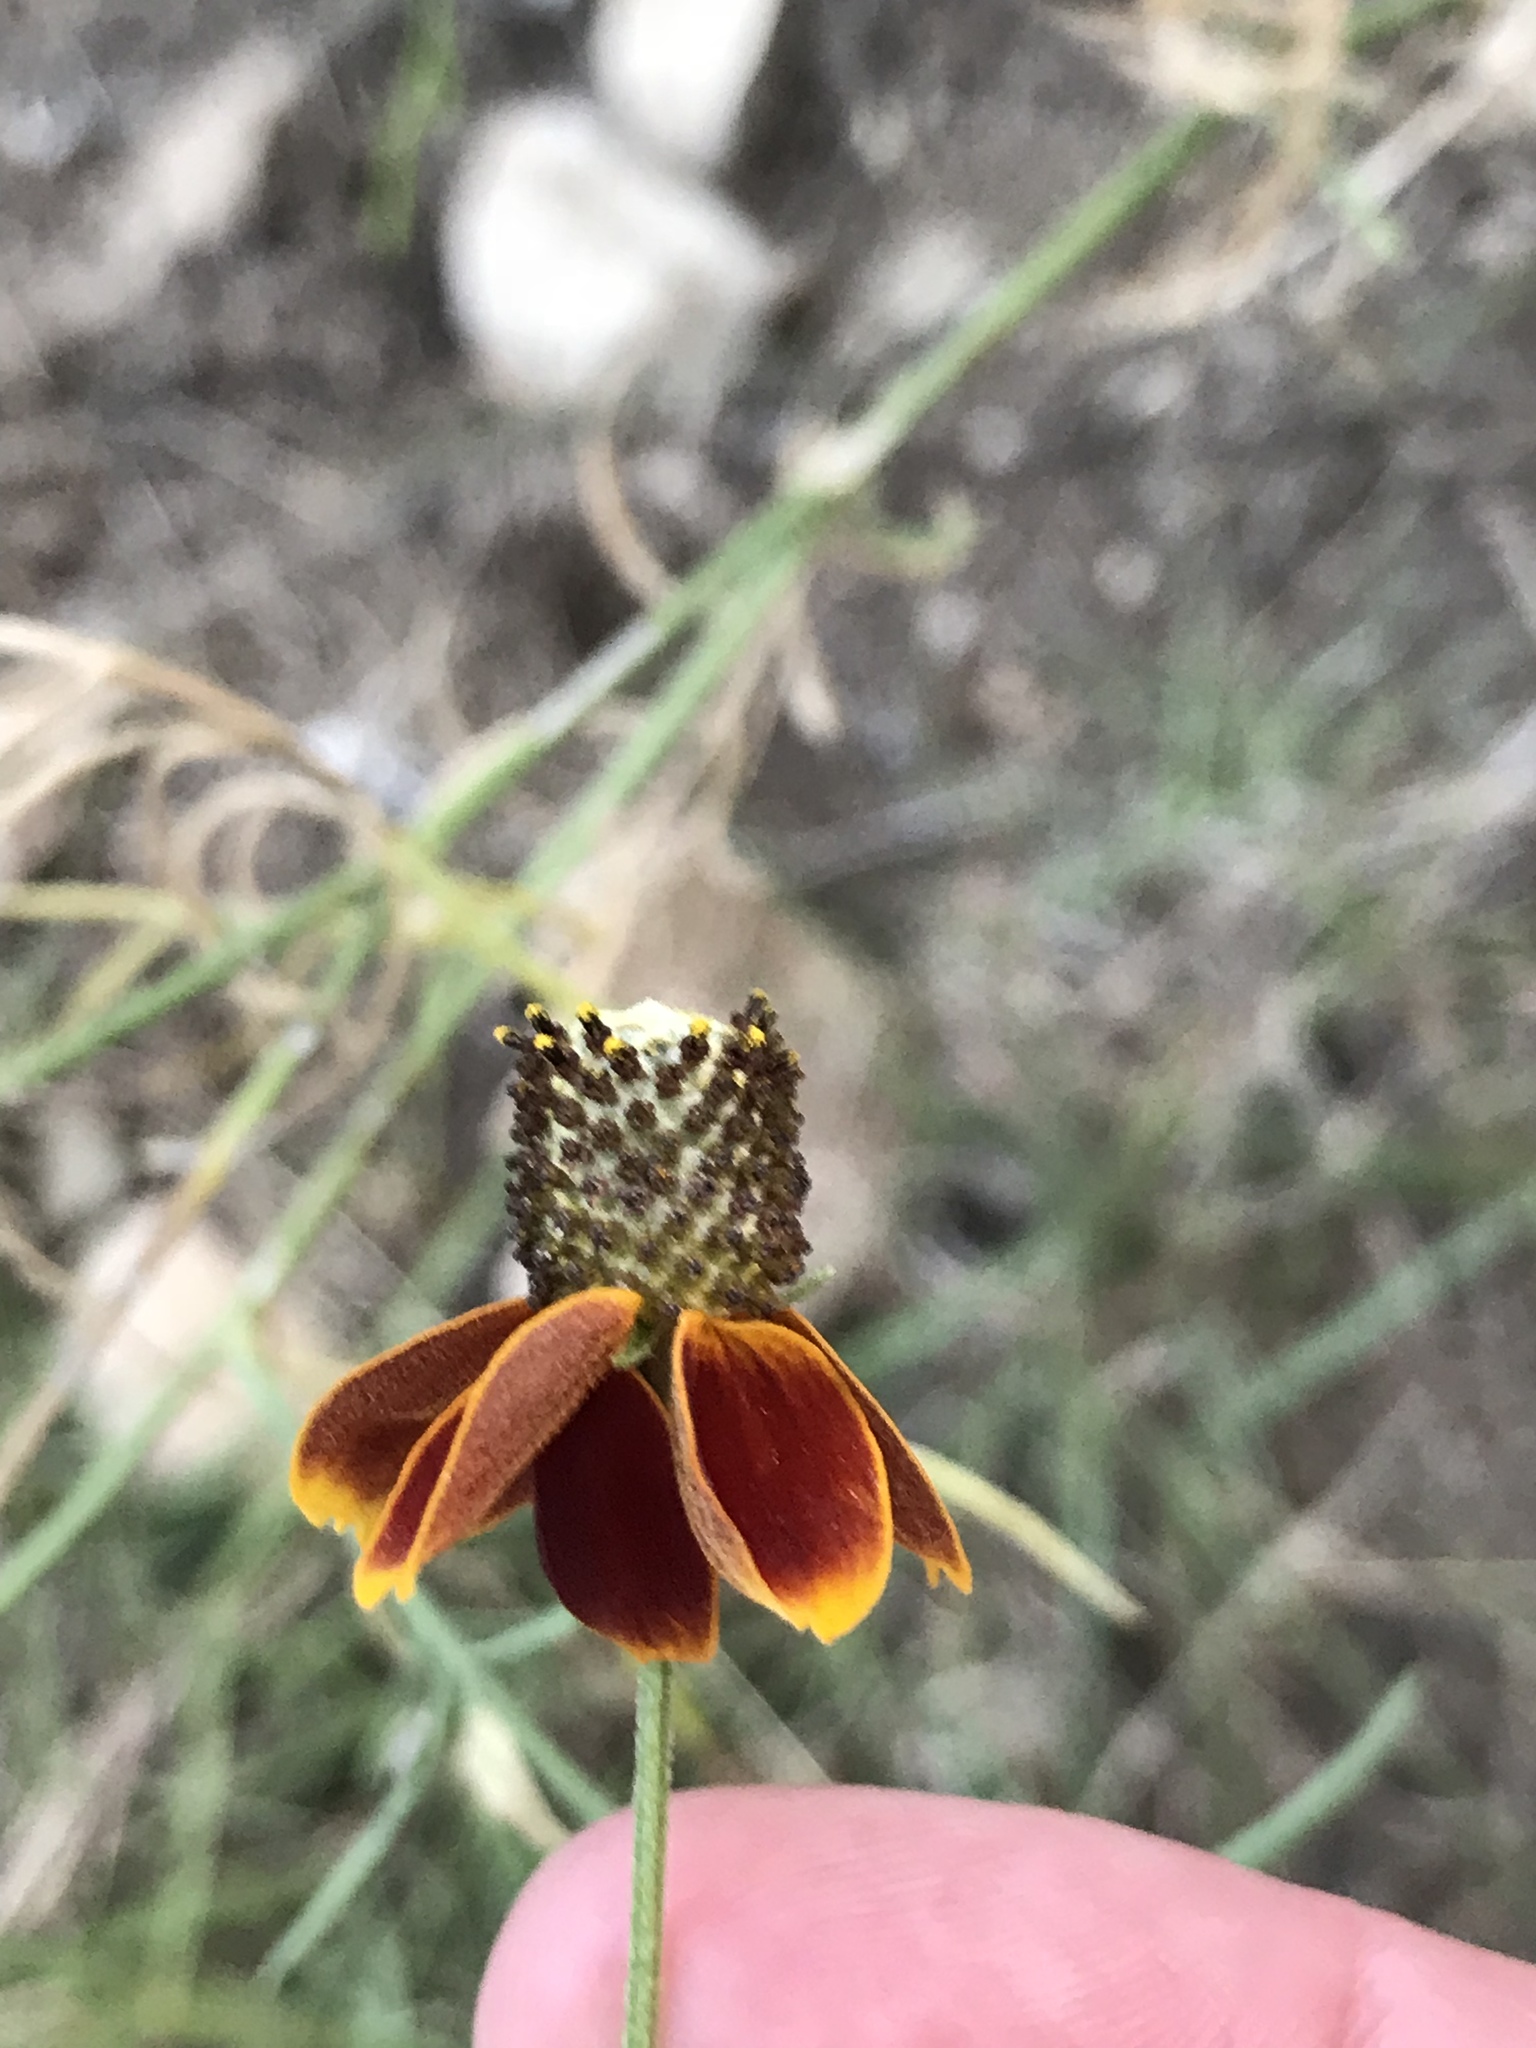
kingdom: Plantae
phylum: Tracheophyta
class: Magnoliopsida
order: Asterales
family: Asteraceae
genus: Ratibida
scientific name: Ratibida columnifera
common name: Prairie coneflower
